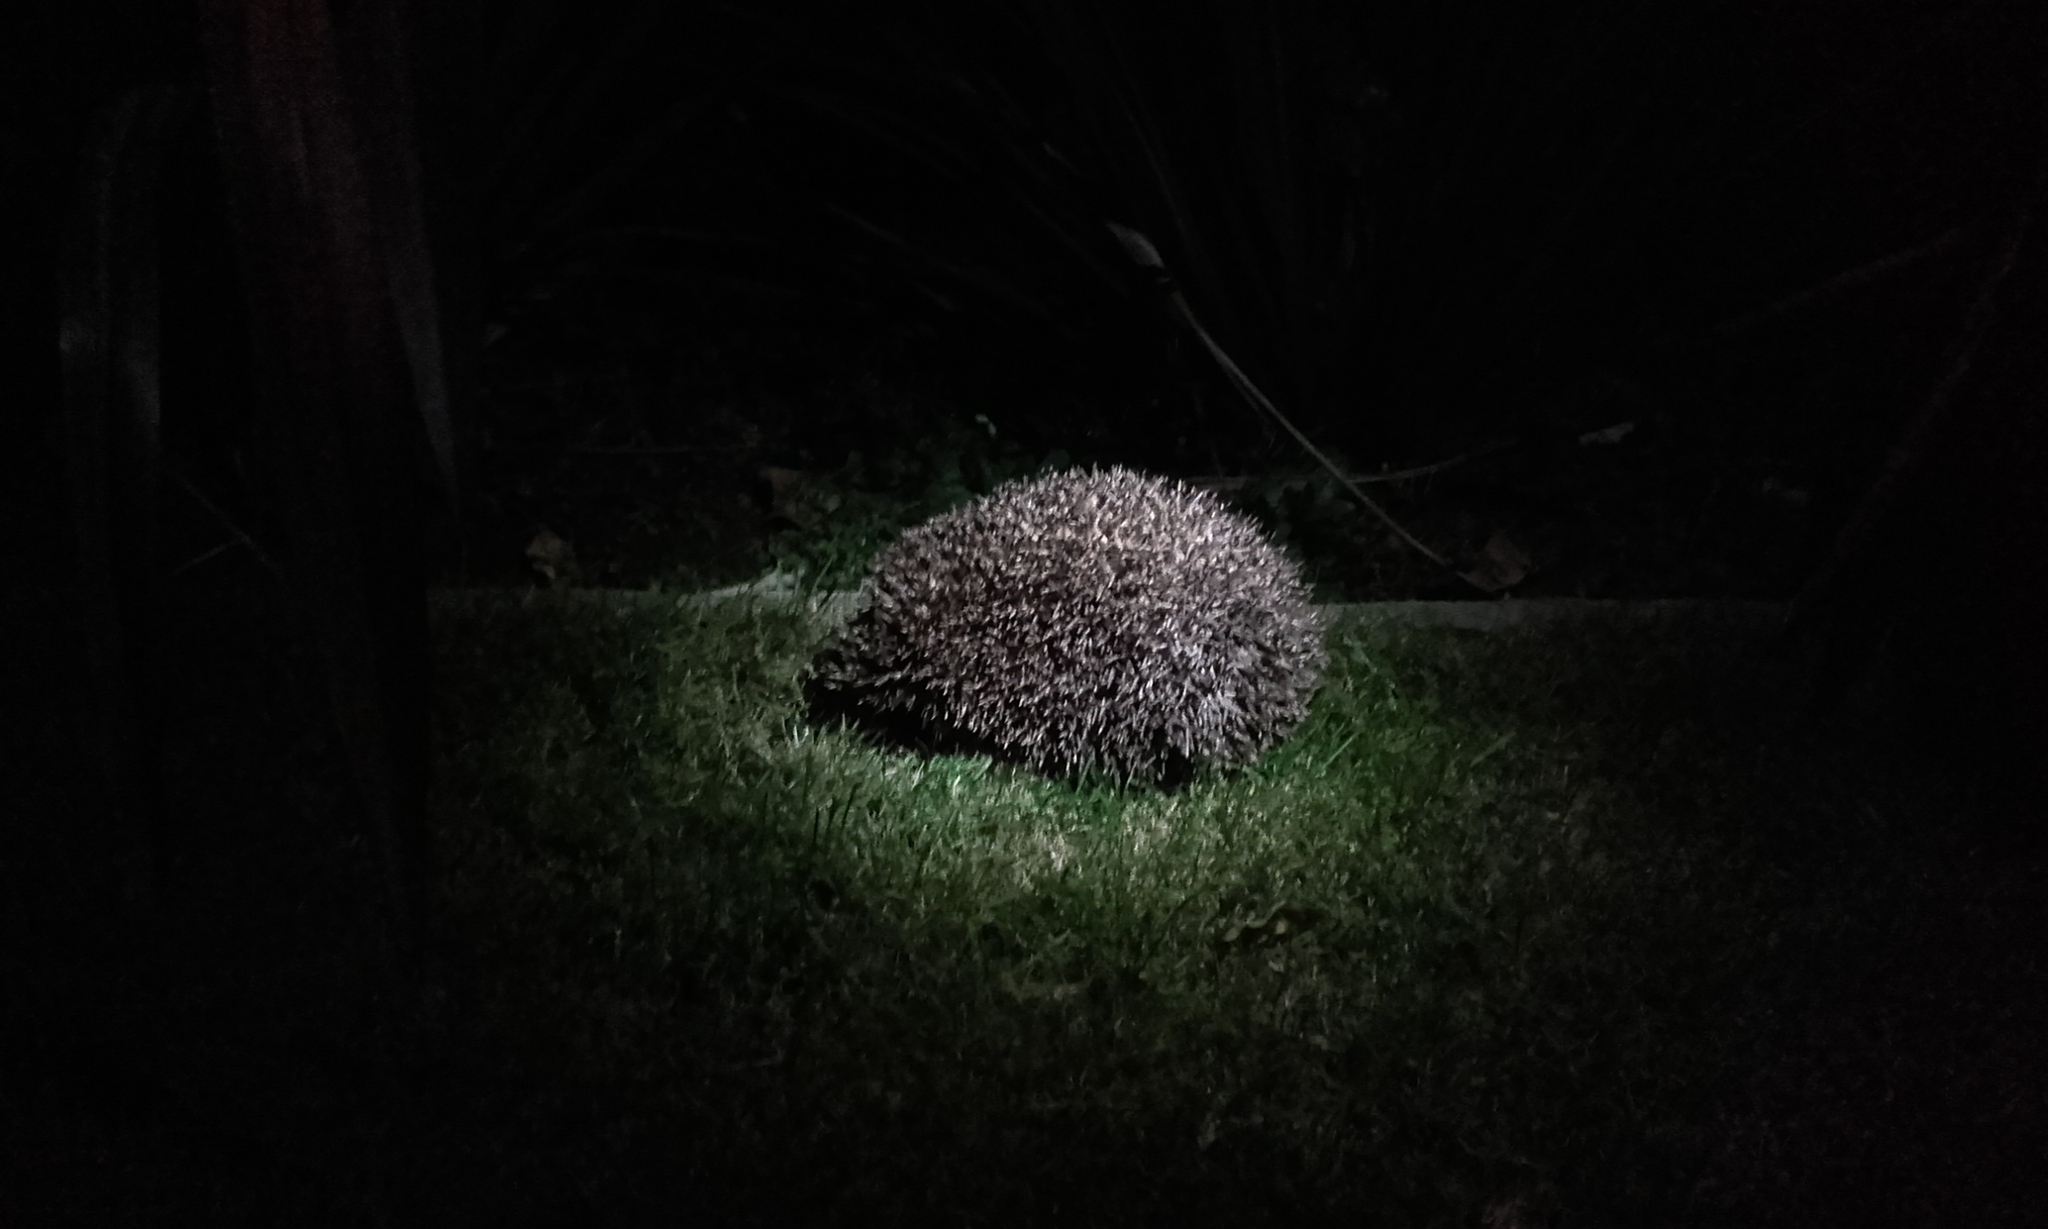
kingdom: Animalia
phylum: Chordata
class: Mammalia
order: Erinaceomorpha
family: Erinaceidae
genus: Erinaceus
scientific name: Erinaceus europaeus
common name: West european hedgehog
